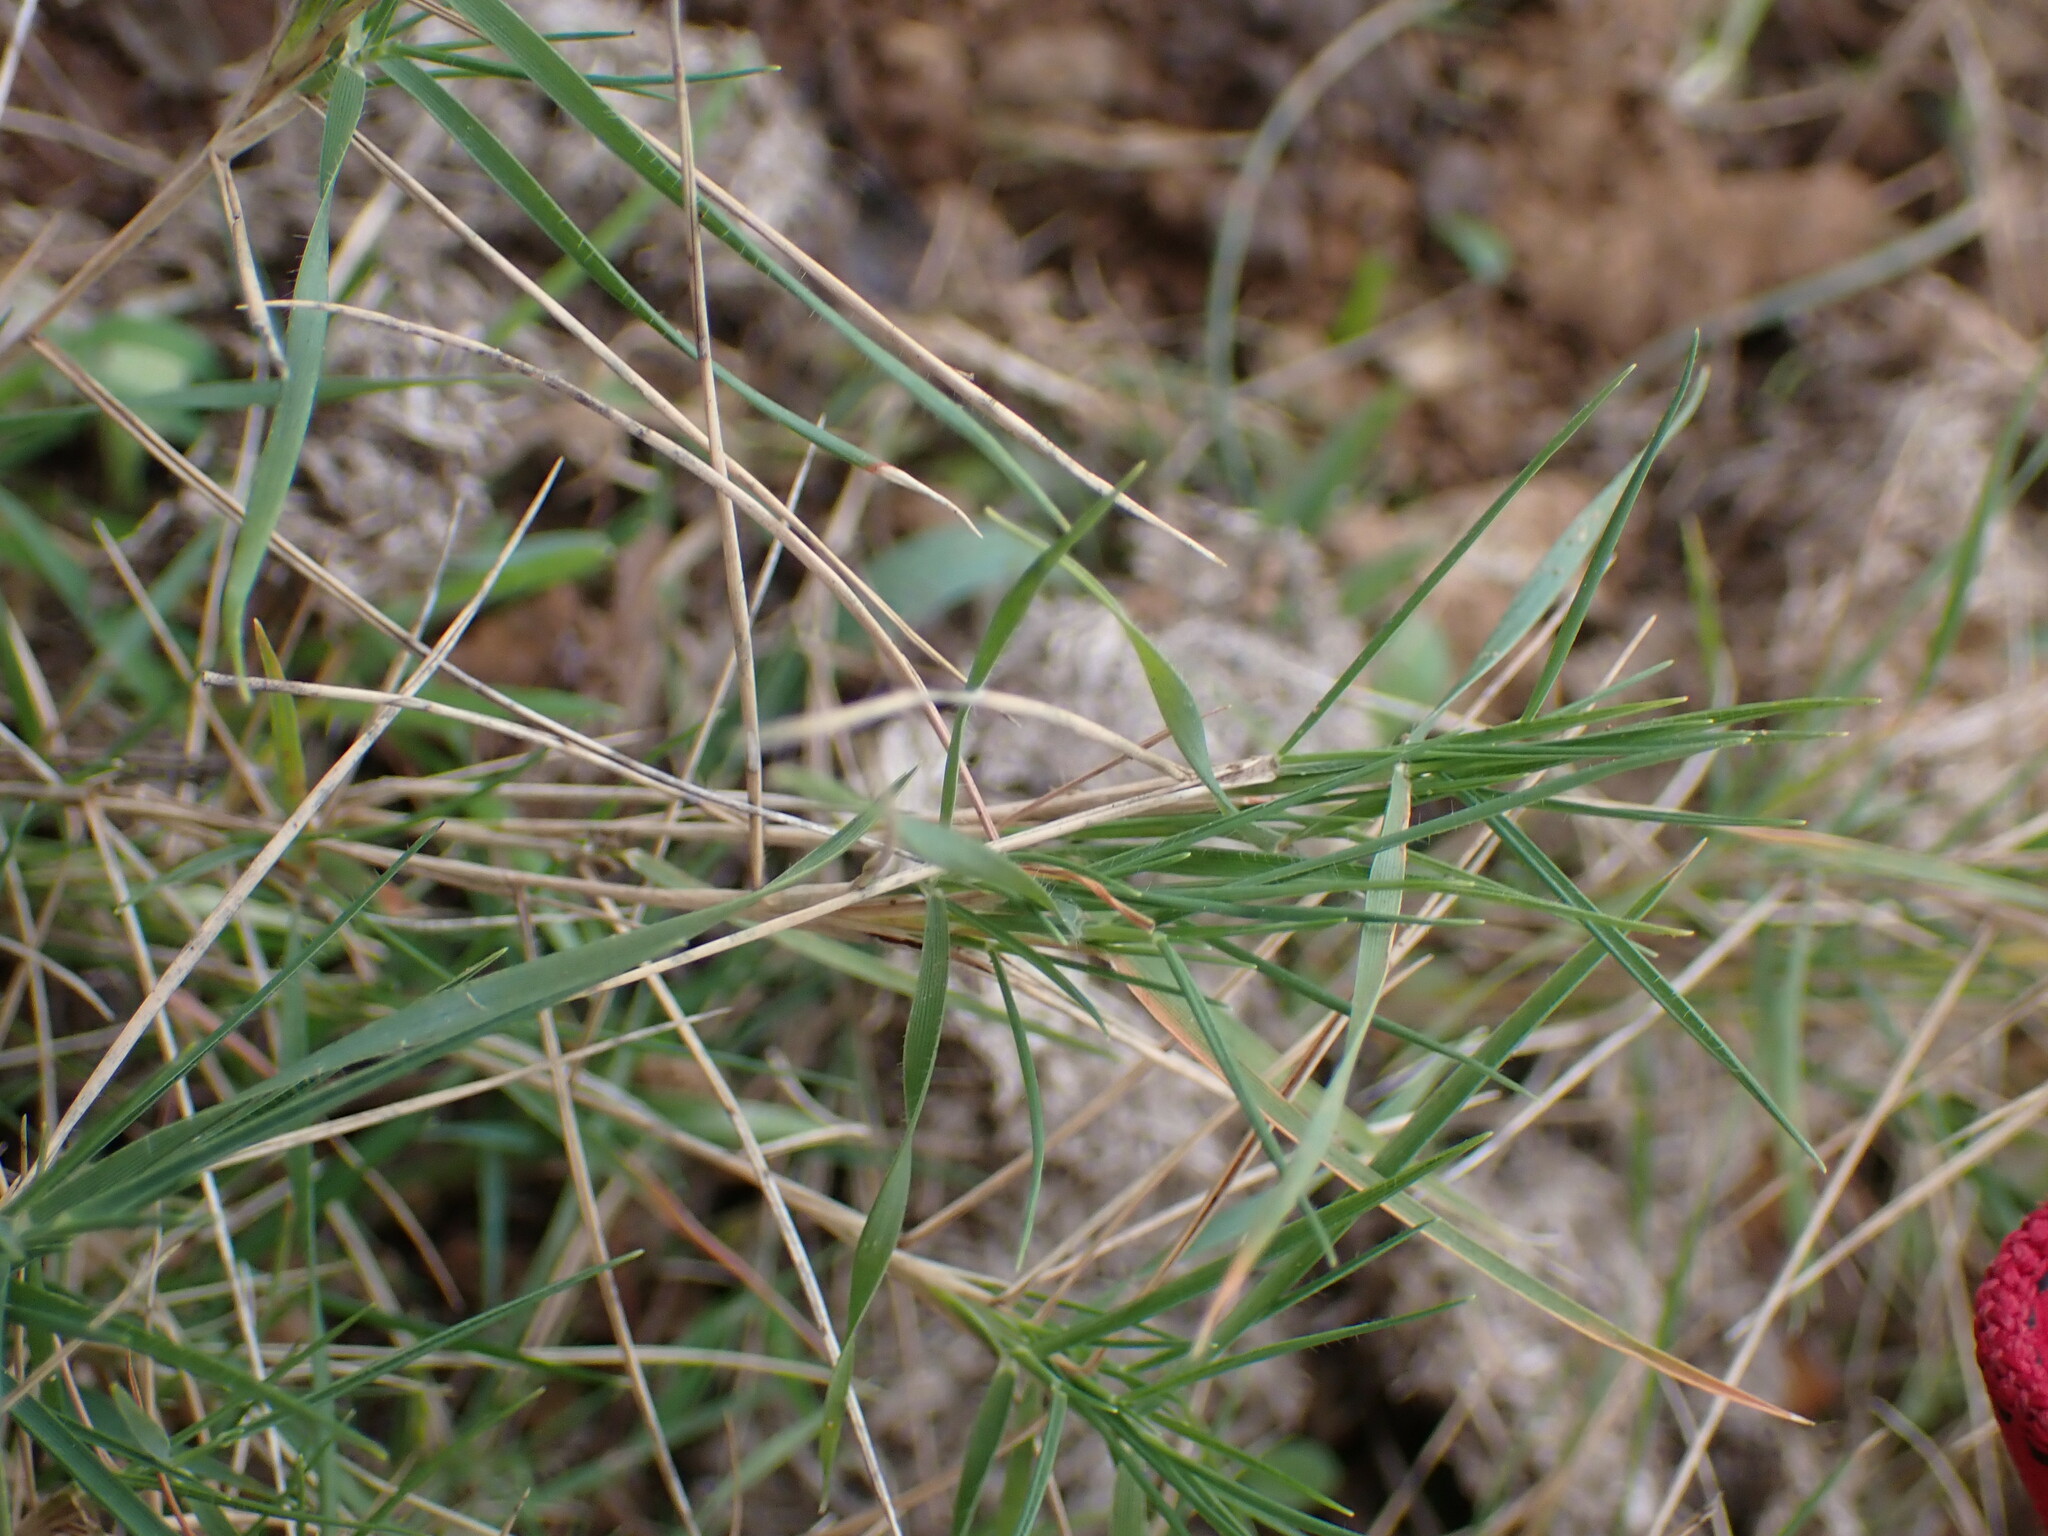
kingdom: Plantae
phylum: Tracheophyta
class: Liliopsida
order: Poales
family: Poaceae
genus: Brachypodium
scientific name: Brachypodium retusum
